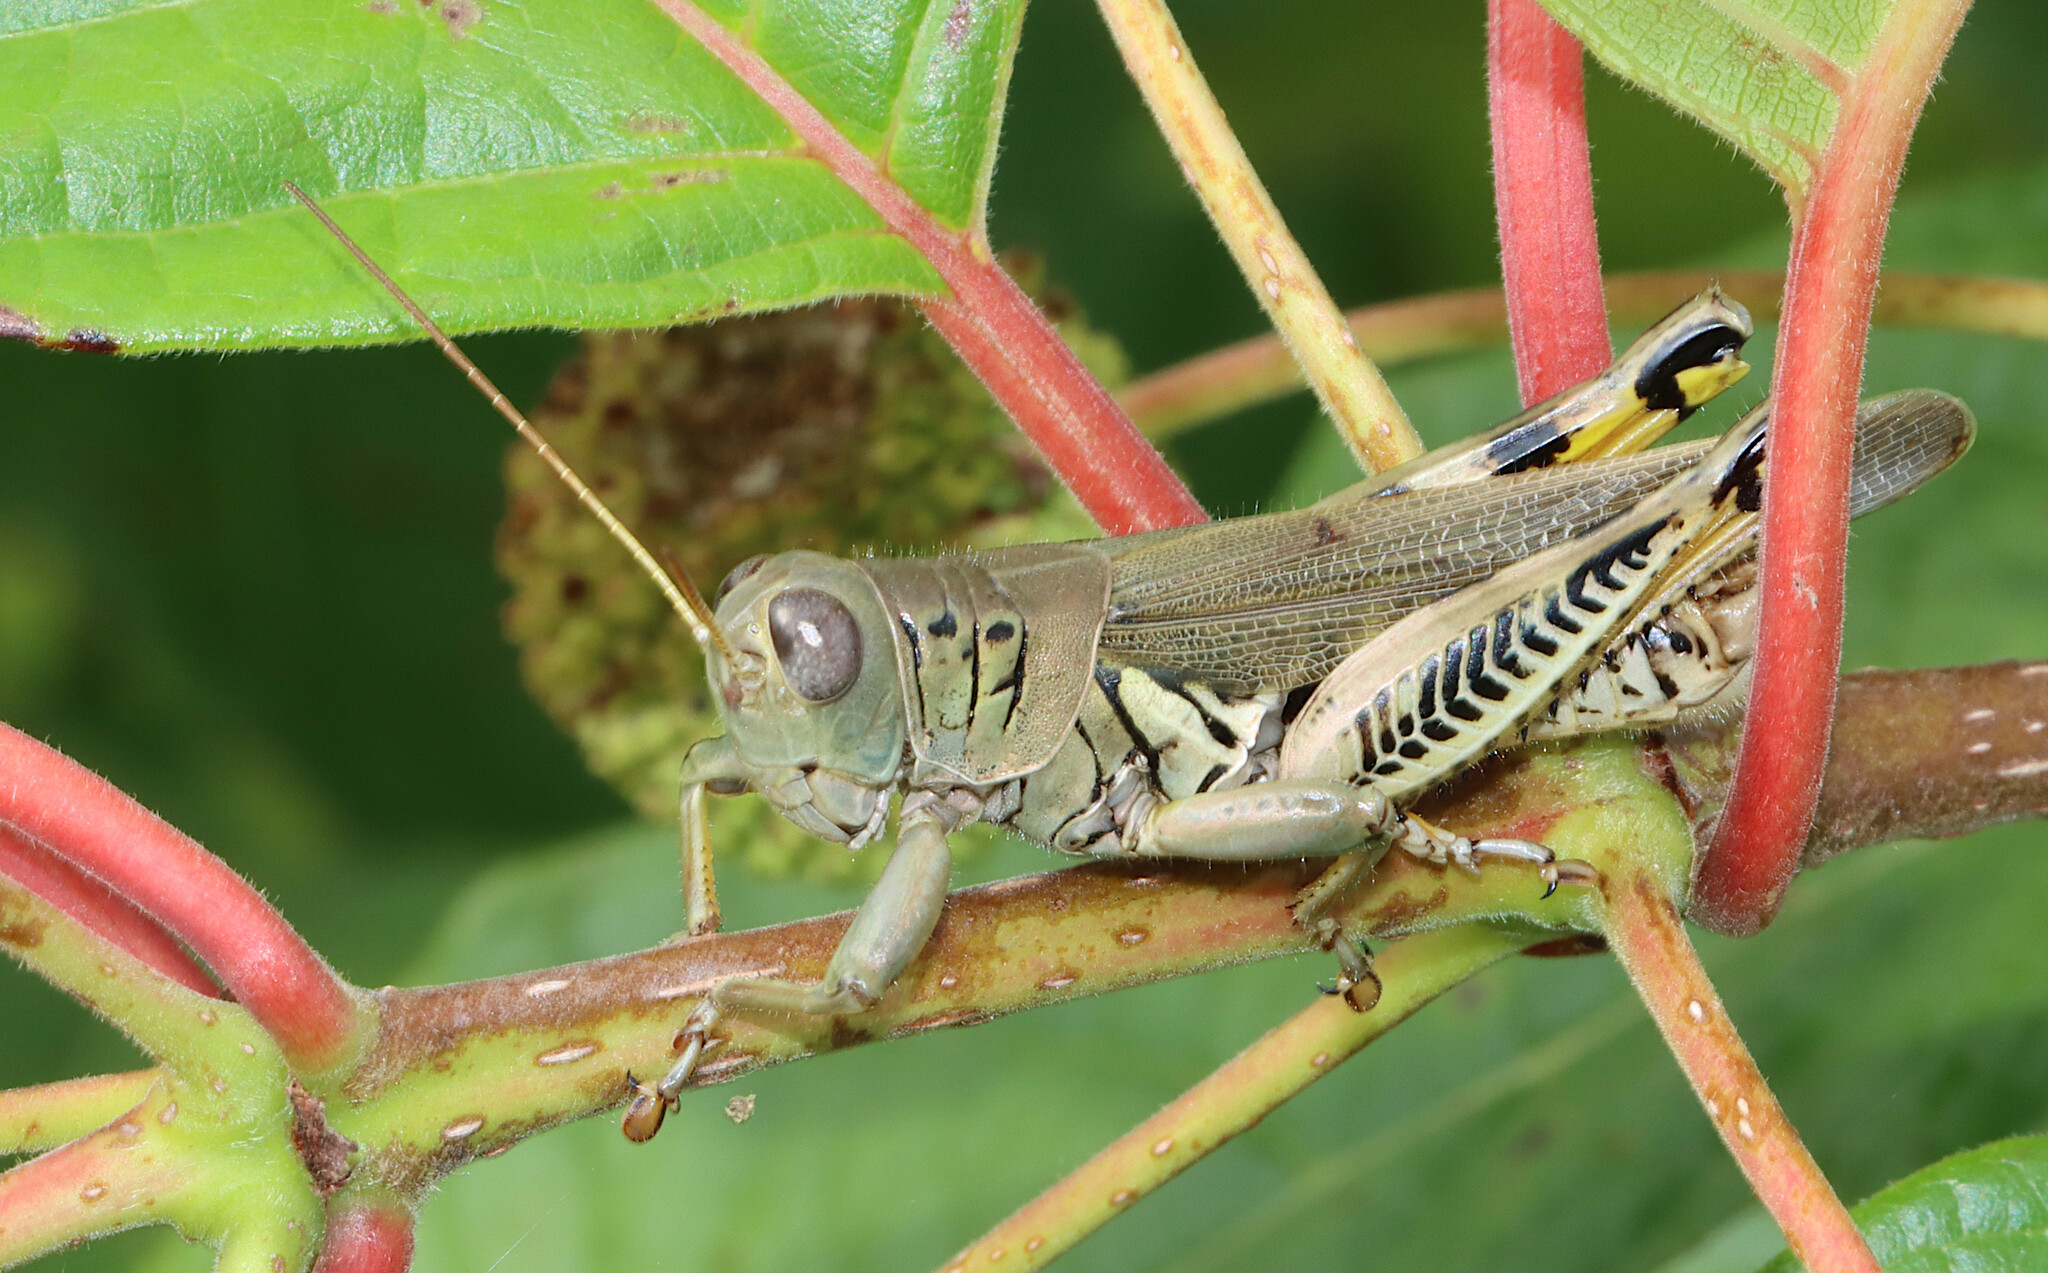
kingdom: Animalia
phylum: Arthropoda
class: Insecta
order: Orthoptera
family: Acrididae
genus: Melanoplus
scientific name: Melanoplus differentialis
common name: Differential grasshopper
